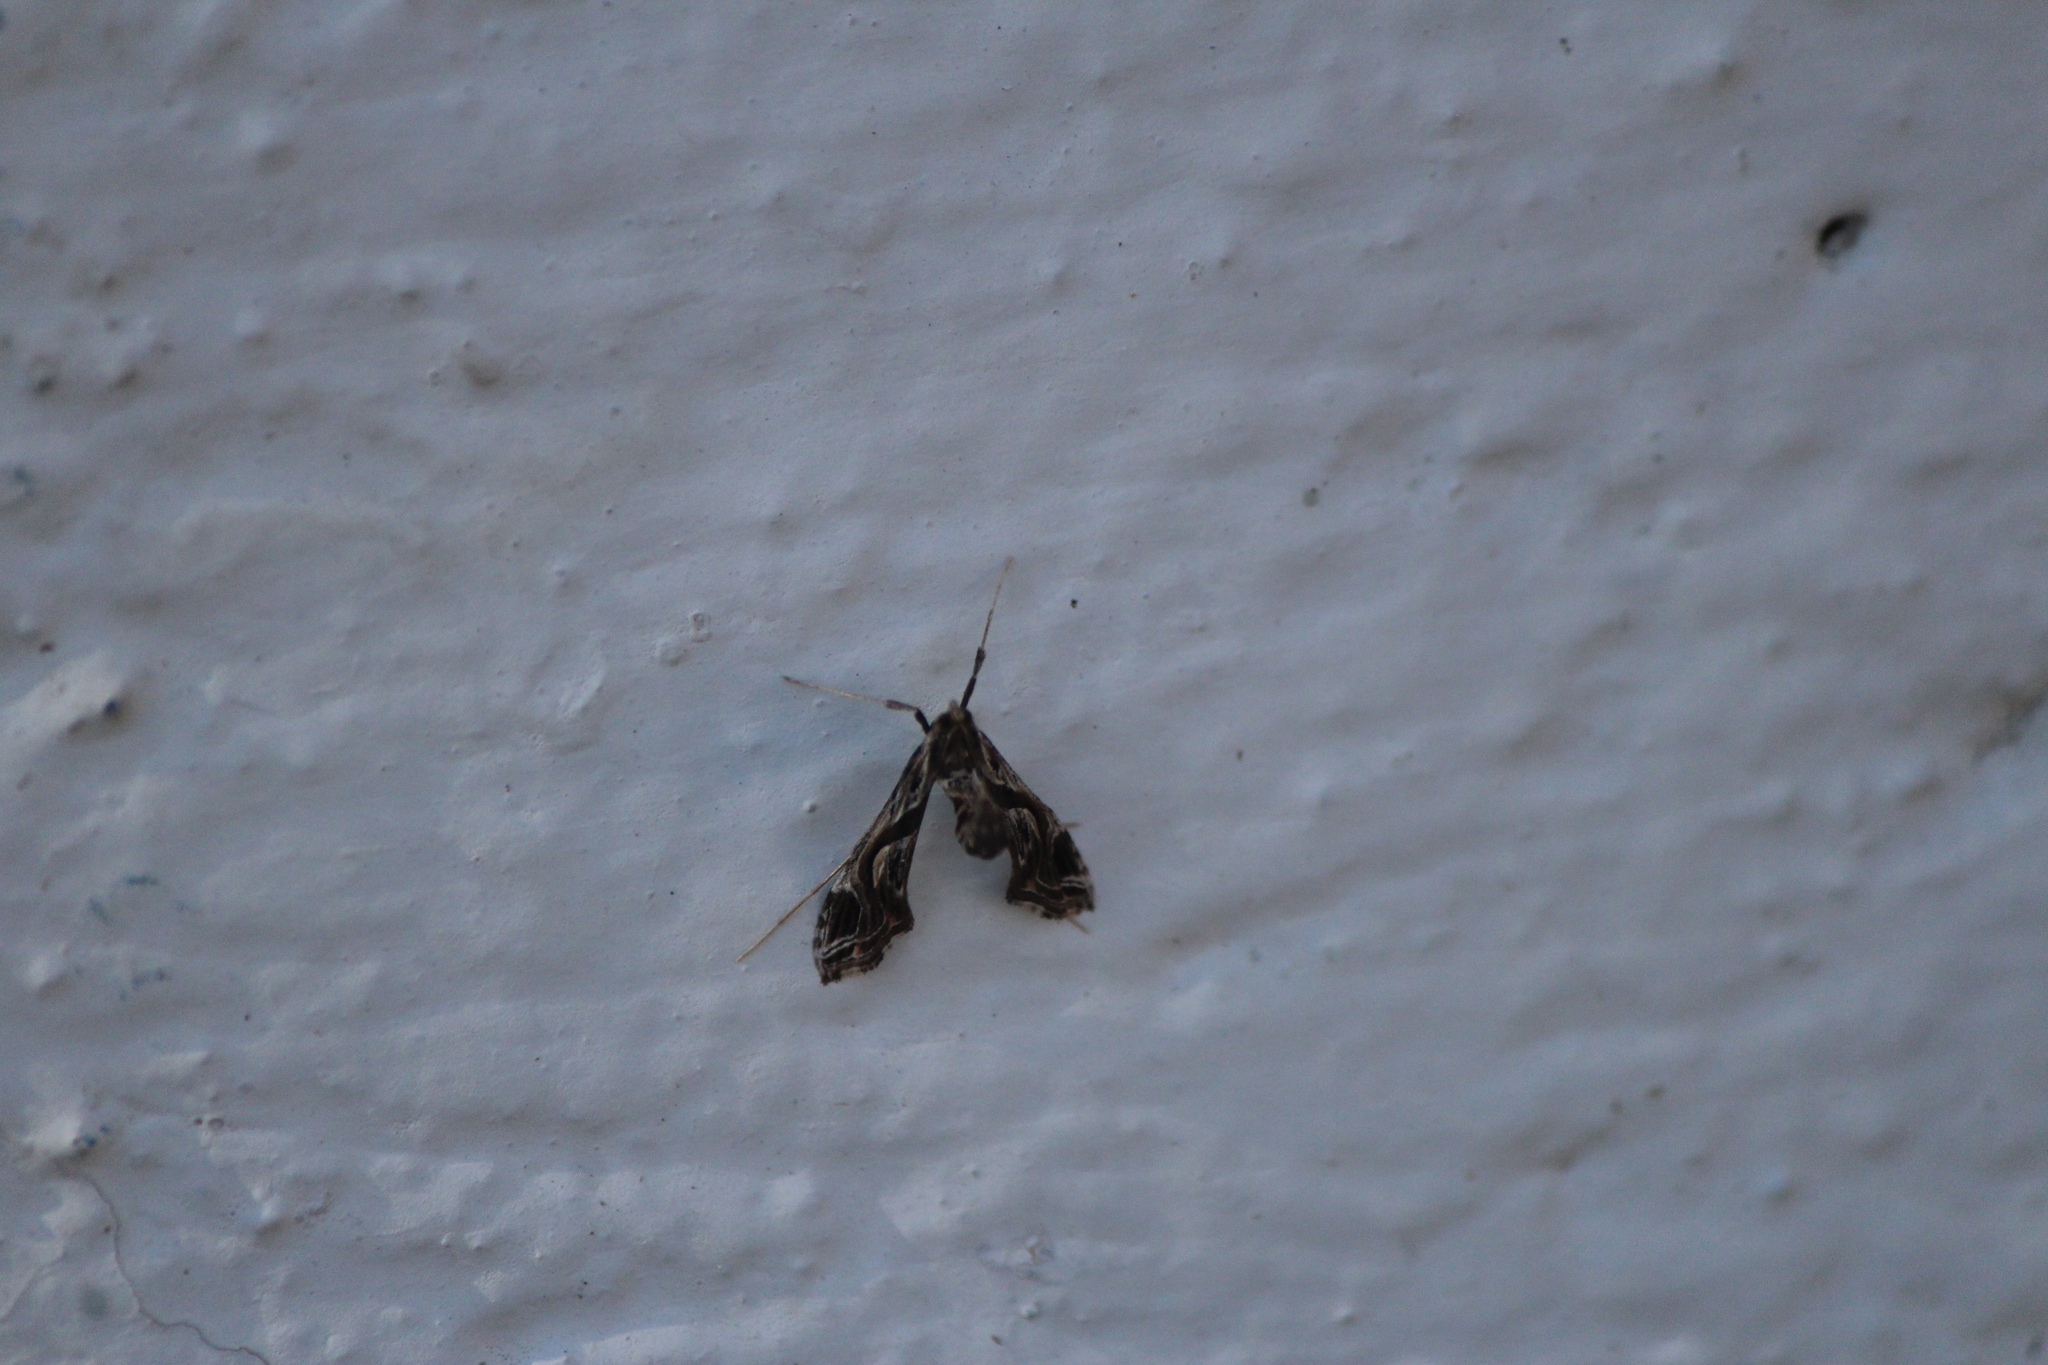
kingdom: Animalia
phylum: Arthropoda
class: Insecta
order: Lepidoptera
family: Crambidae
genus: Lineodes
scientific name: Lineodes integra
